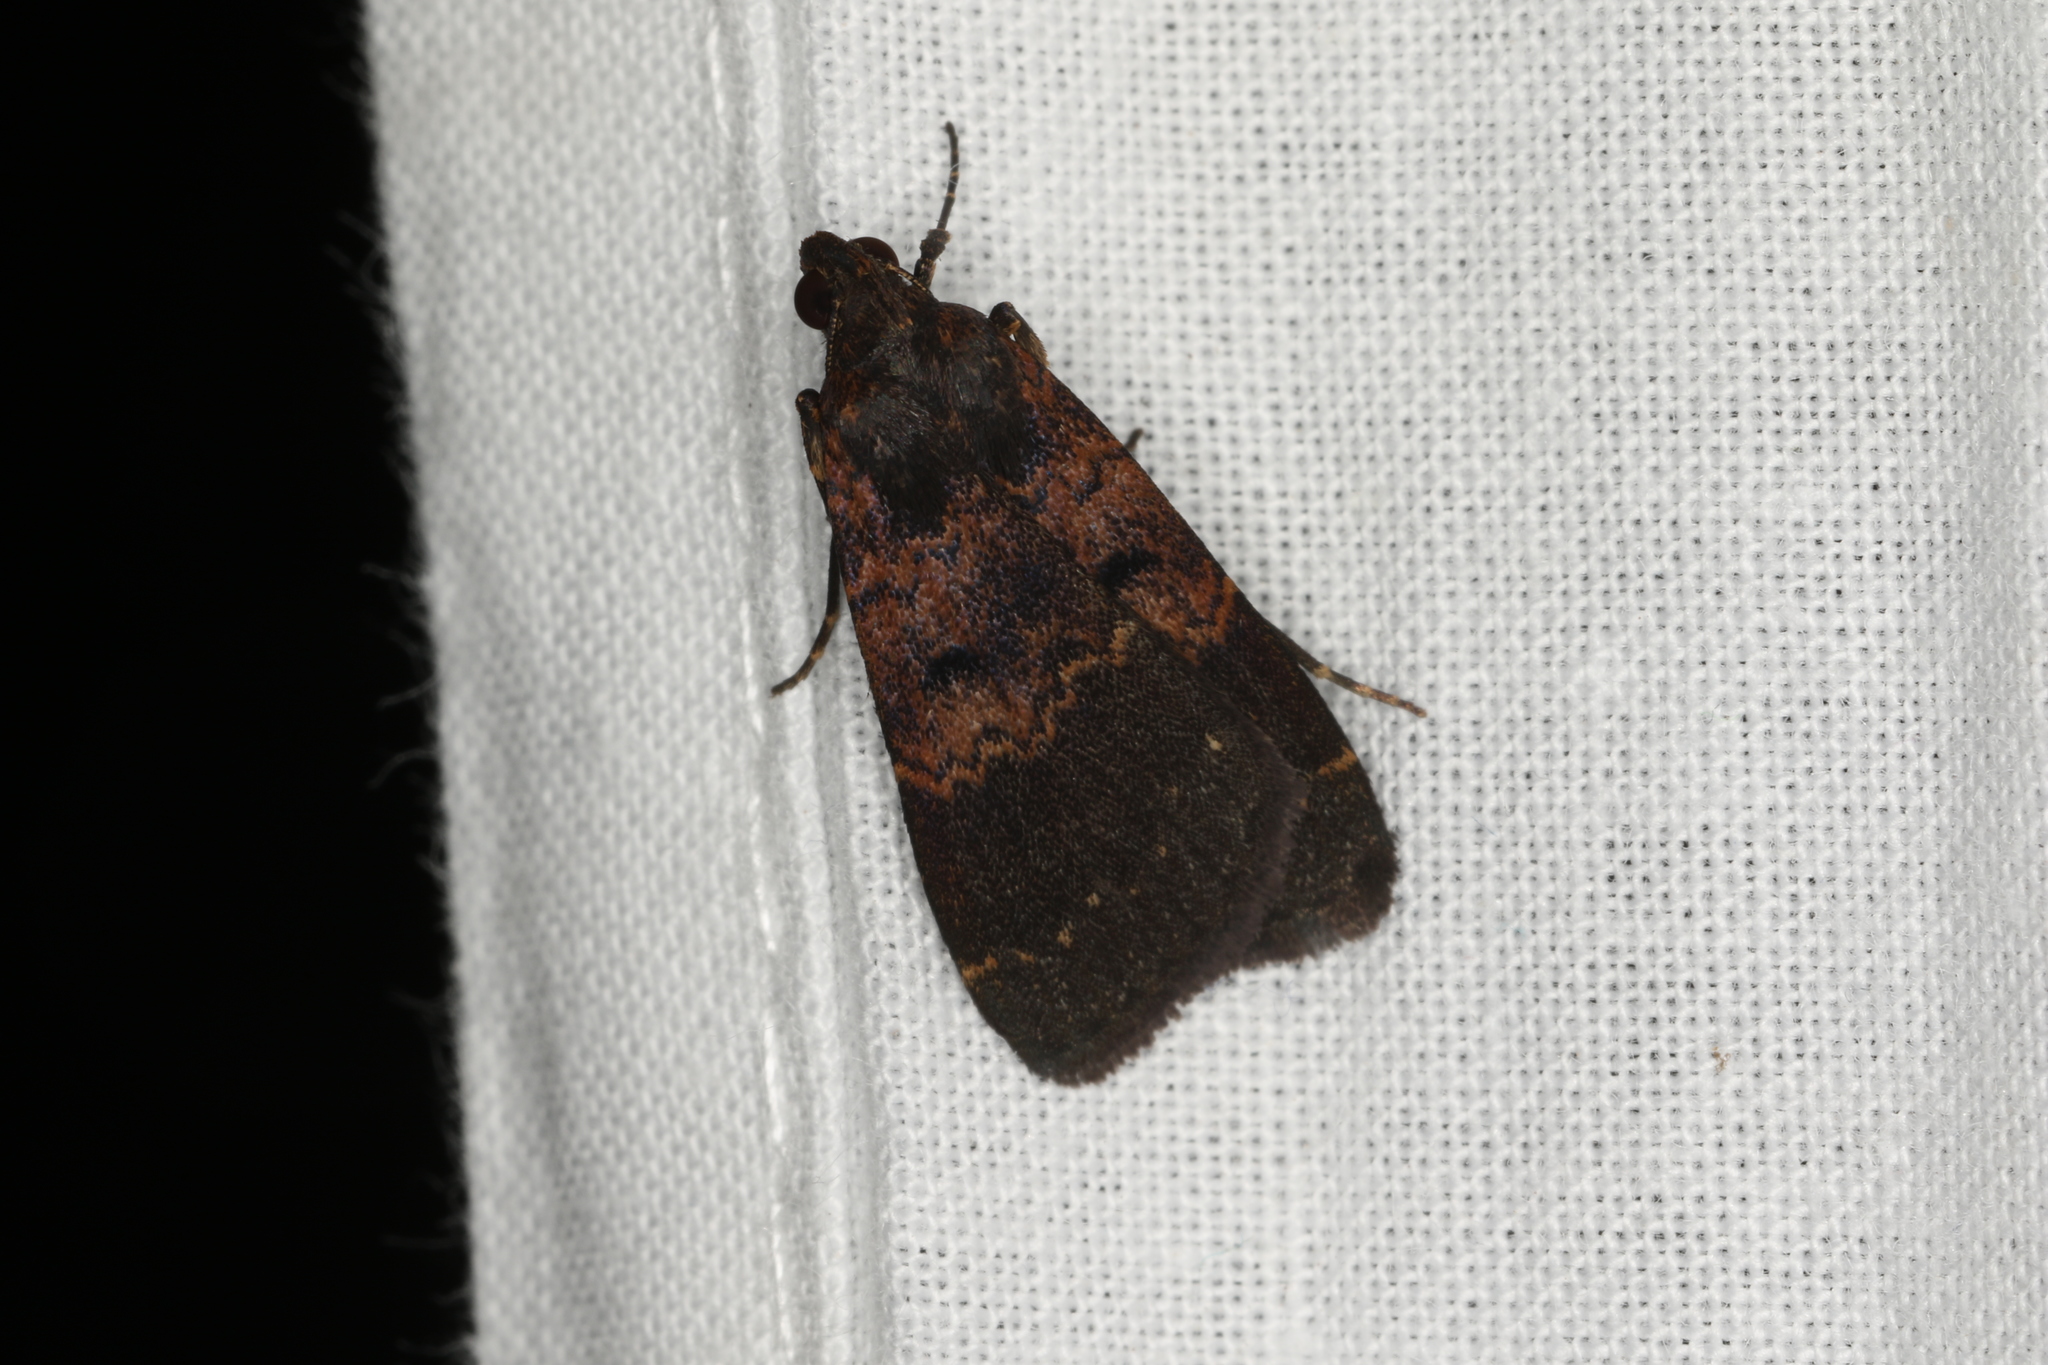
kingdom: Animalia
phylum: Arthropoda
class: Insecta
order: Lepidoptera
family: Erebidae
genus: Hydrillodes
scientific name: Hydrillodes funestalis
